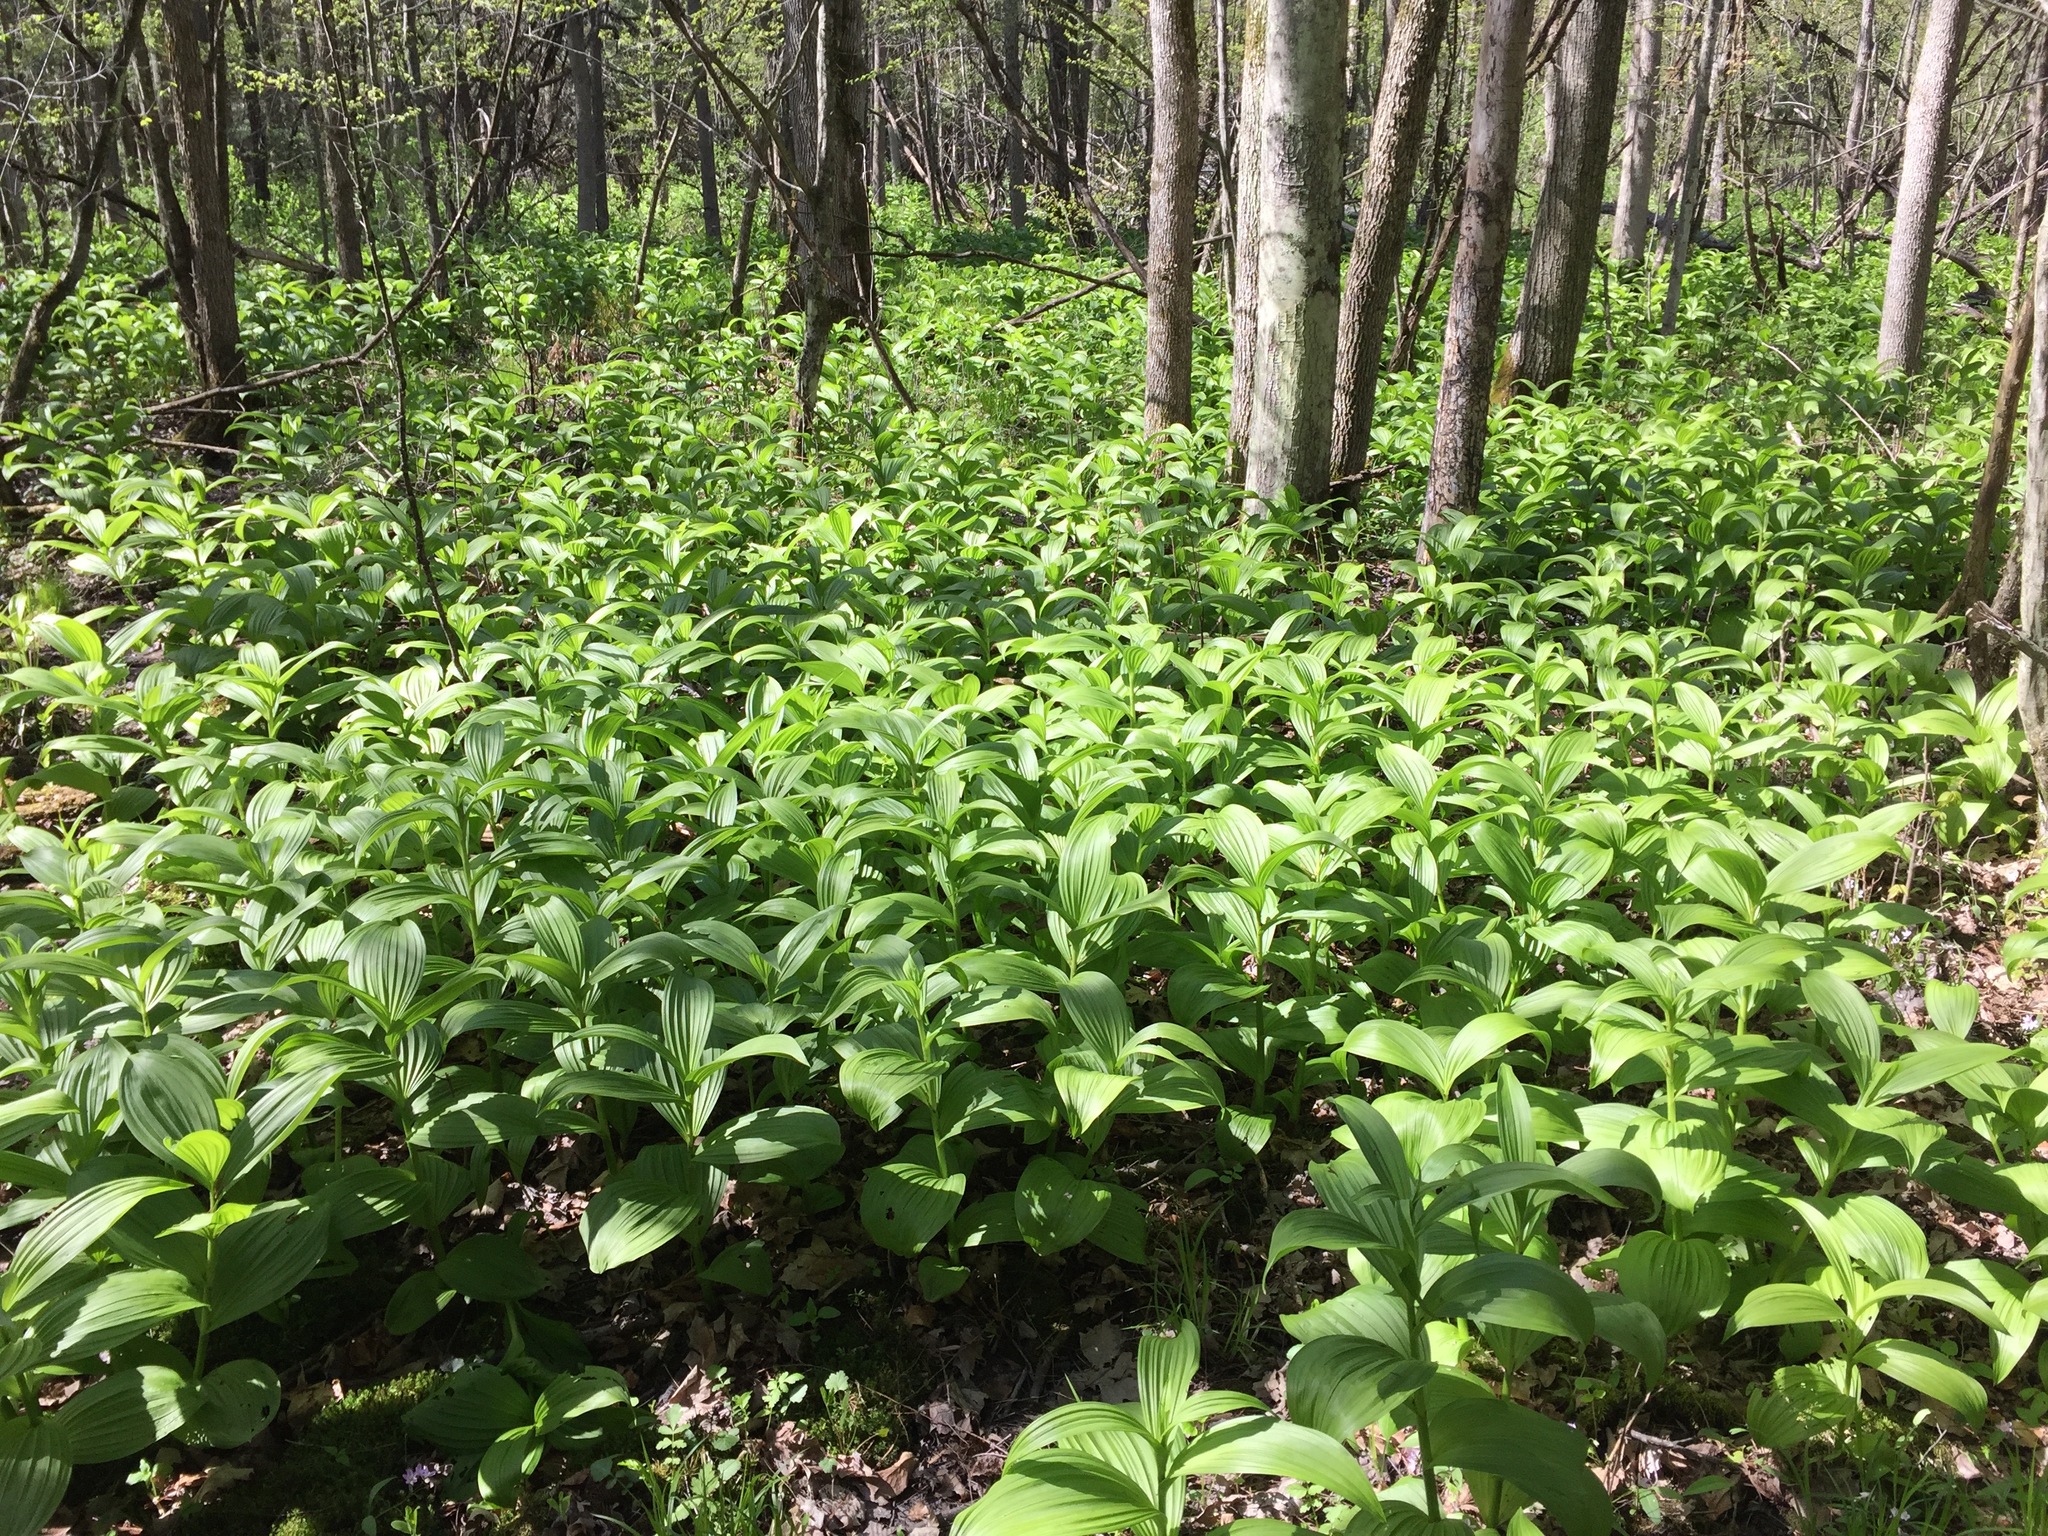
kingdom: Plantae
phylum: Tracheophyta
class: Liliopsida
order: Liliales
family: Melanthiaceae
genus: Veratrum
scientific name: Veratrum viride
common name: American false hellebore
